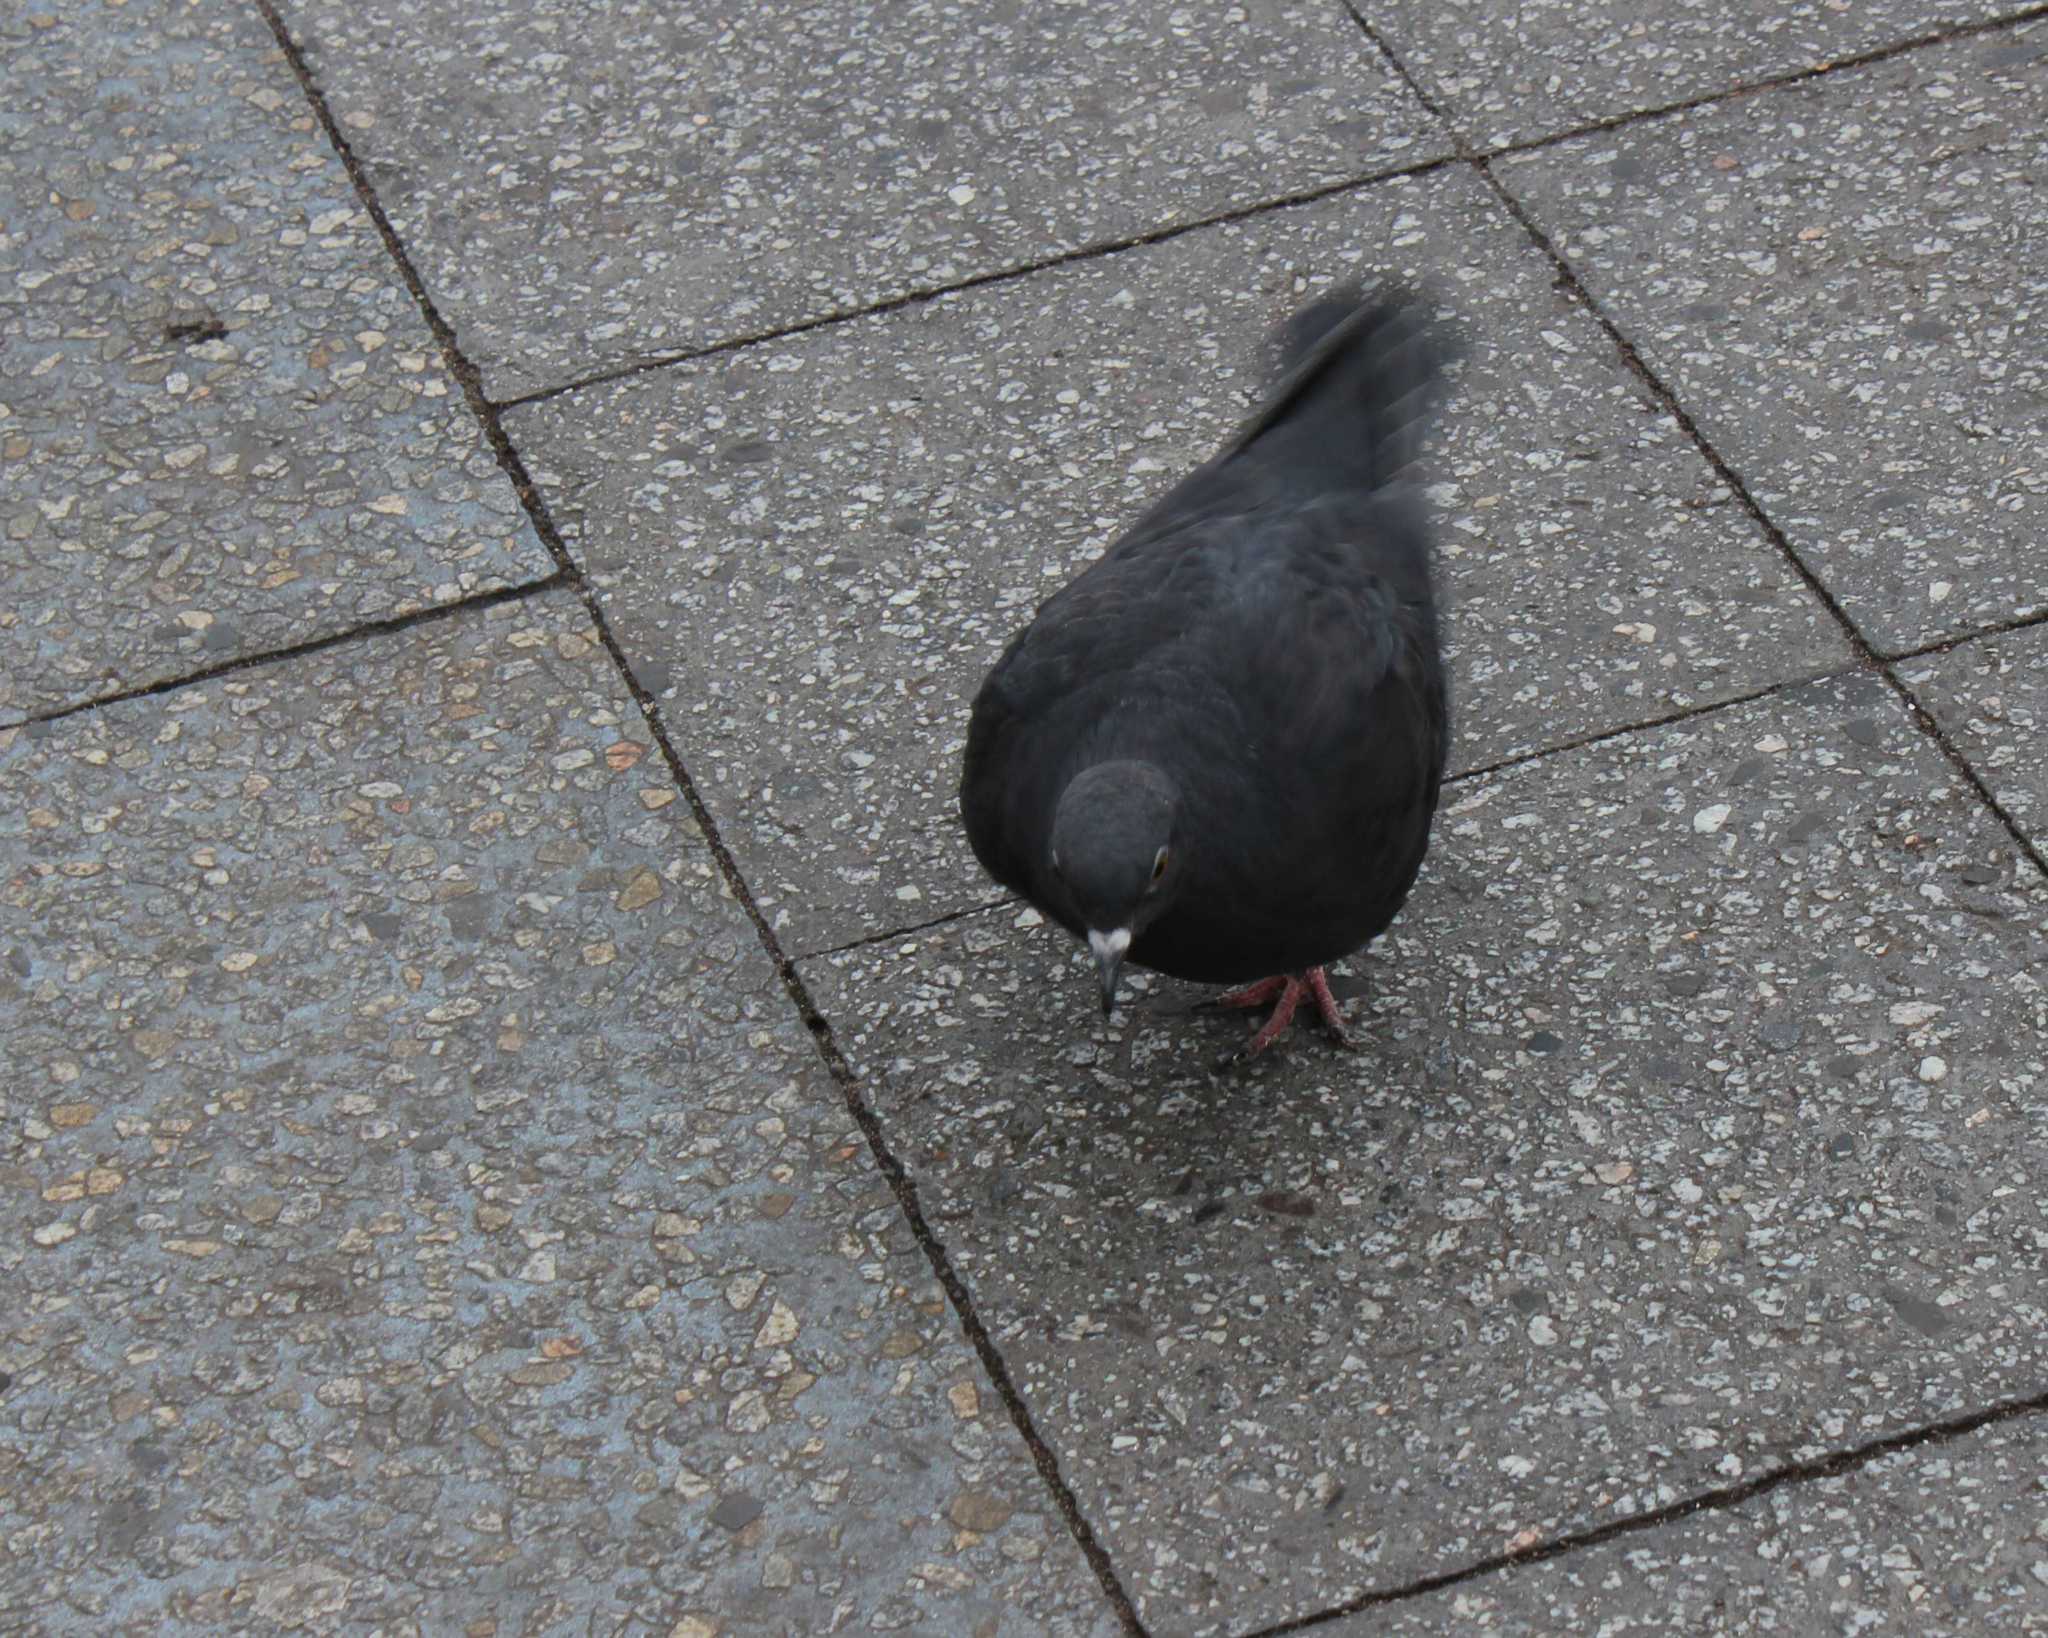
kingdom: Animalia
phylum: Chordata
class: Aves
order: Columbiformes
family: Columbidae
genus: Columba
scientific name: Columba livia
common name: Rock pigeon
